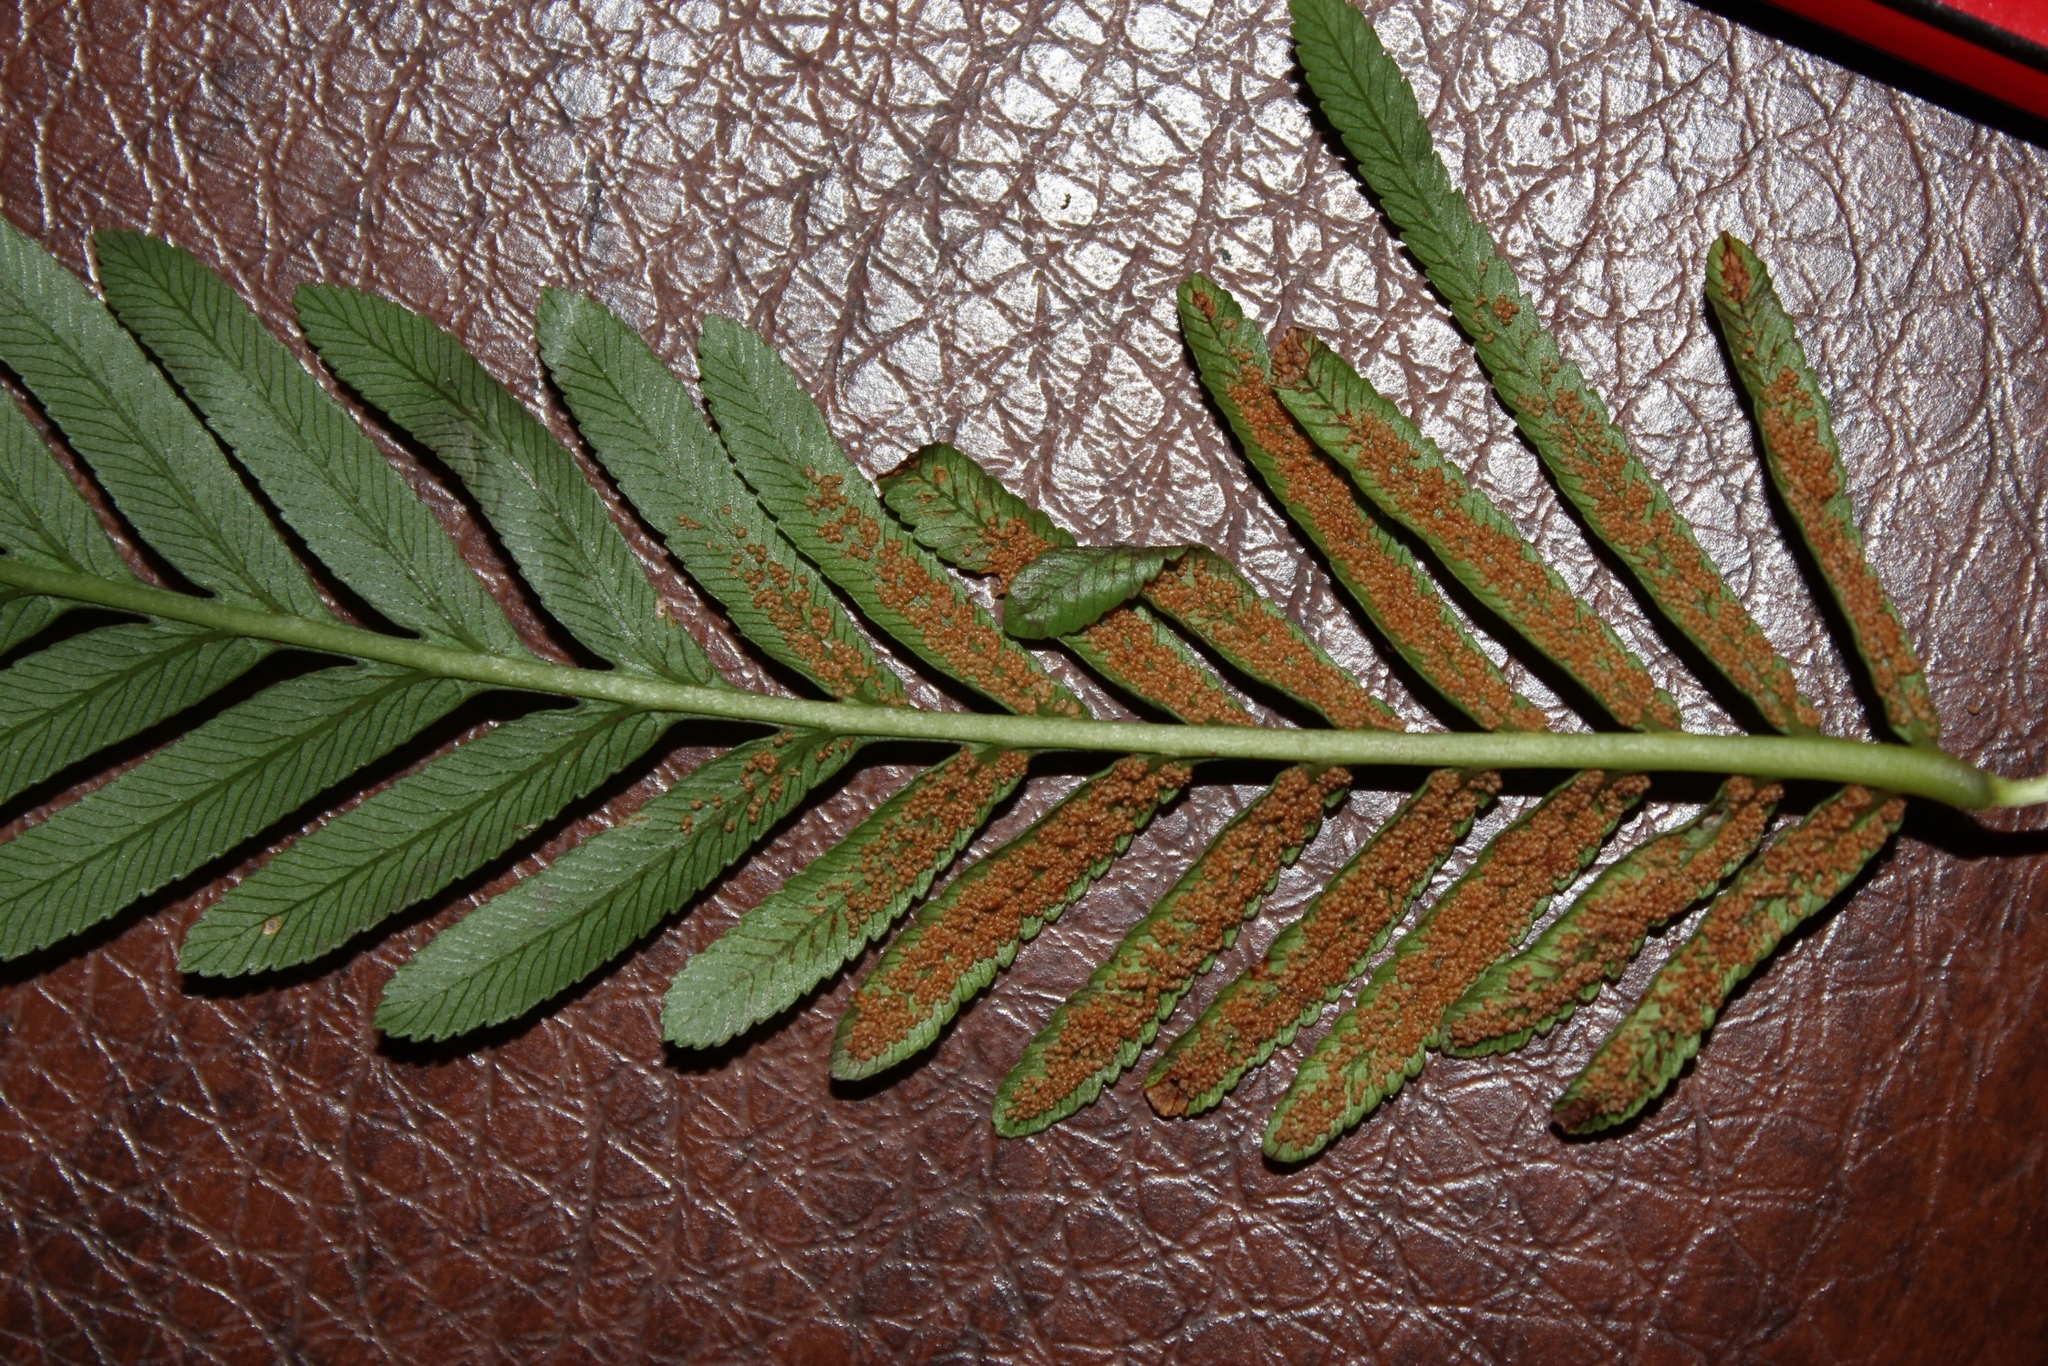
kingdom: Plantae
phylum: Tracheophyta
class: Polypodiopsida
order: Osmundales
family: Osmundaceae
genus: Todea
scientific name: Todea barbara
